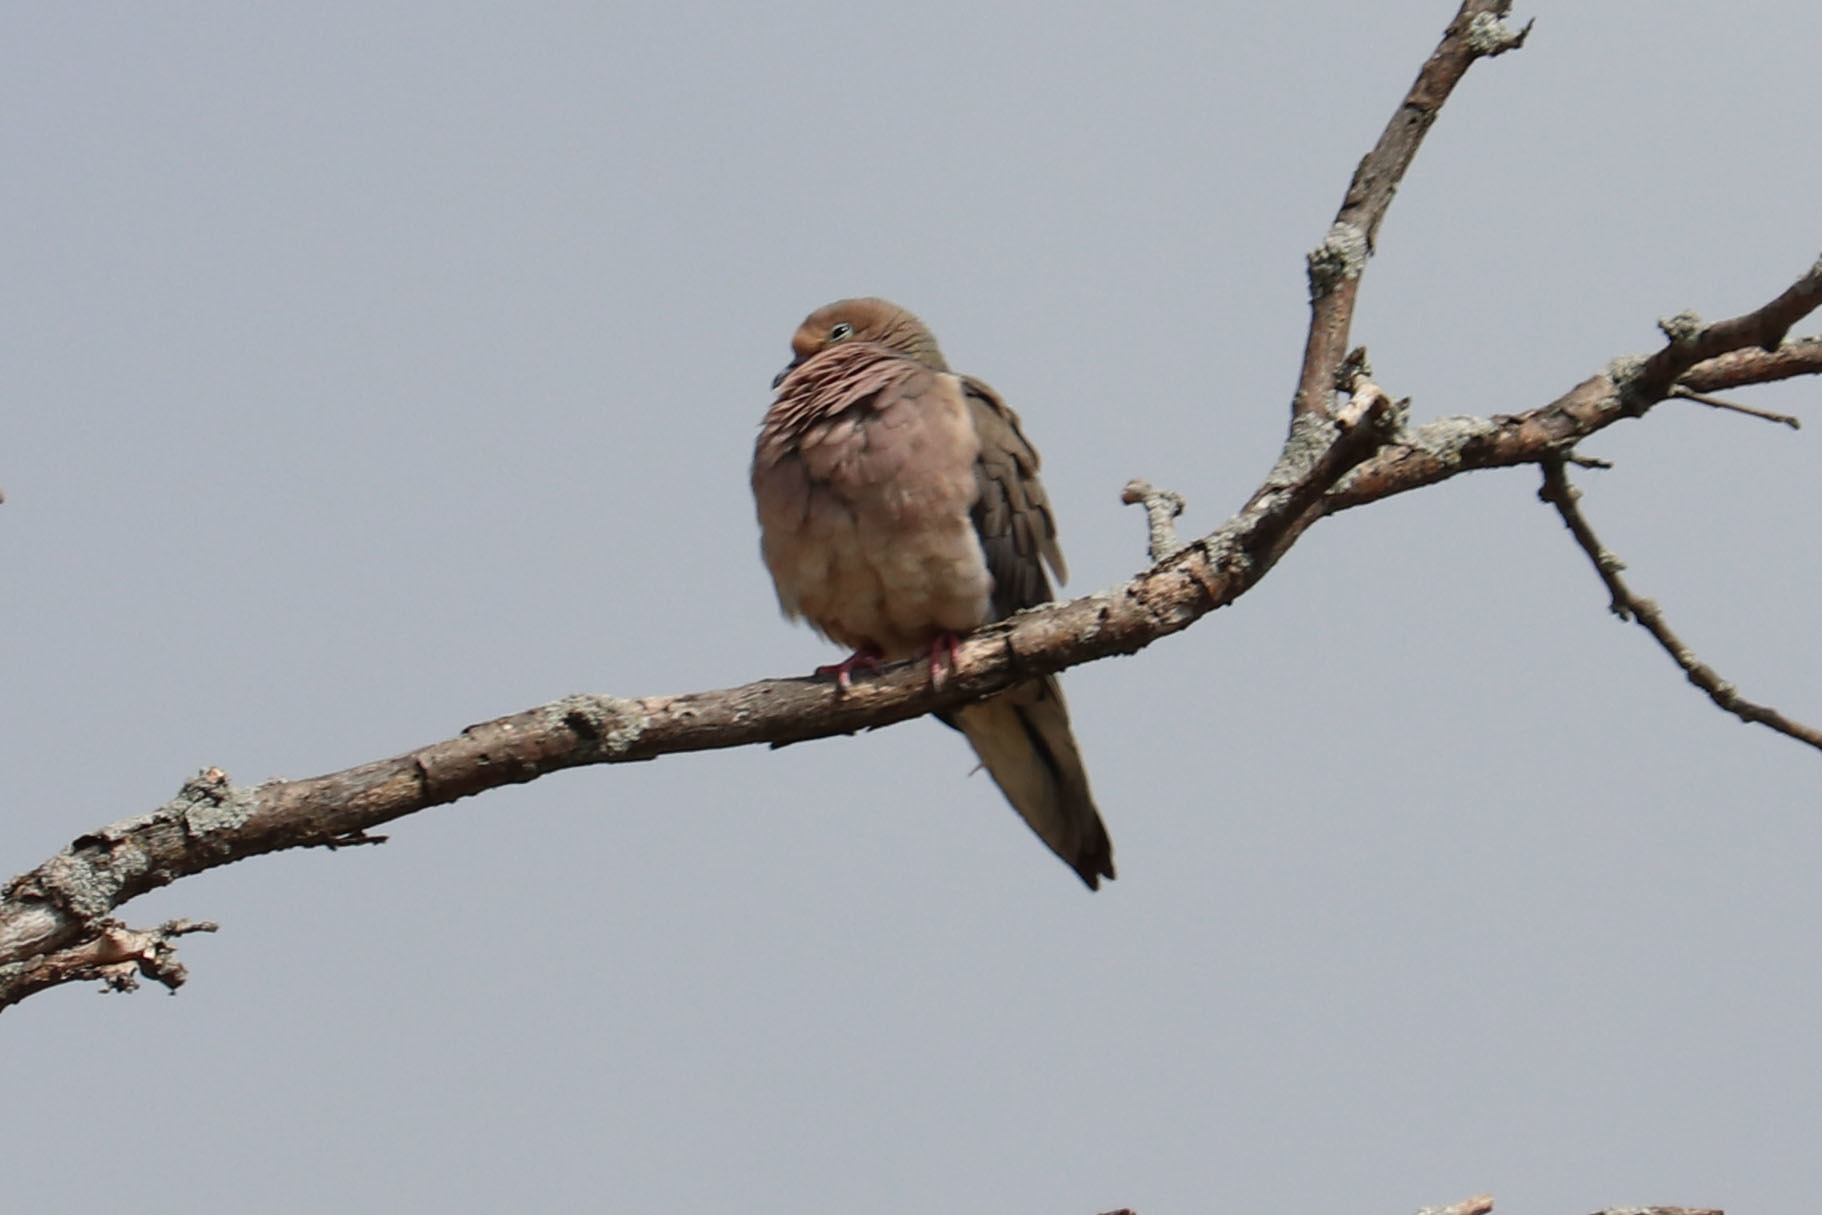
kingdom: Animalia
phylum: Chordata
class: Aves
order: Columbiformes
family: Columbidae
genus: Zenaida
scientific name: Zenaida macroura
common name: Mourning dove
